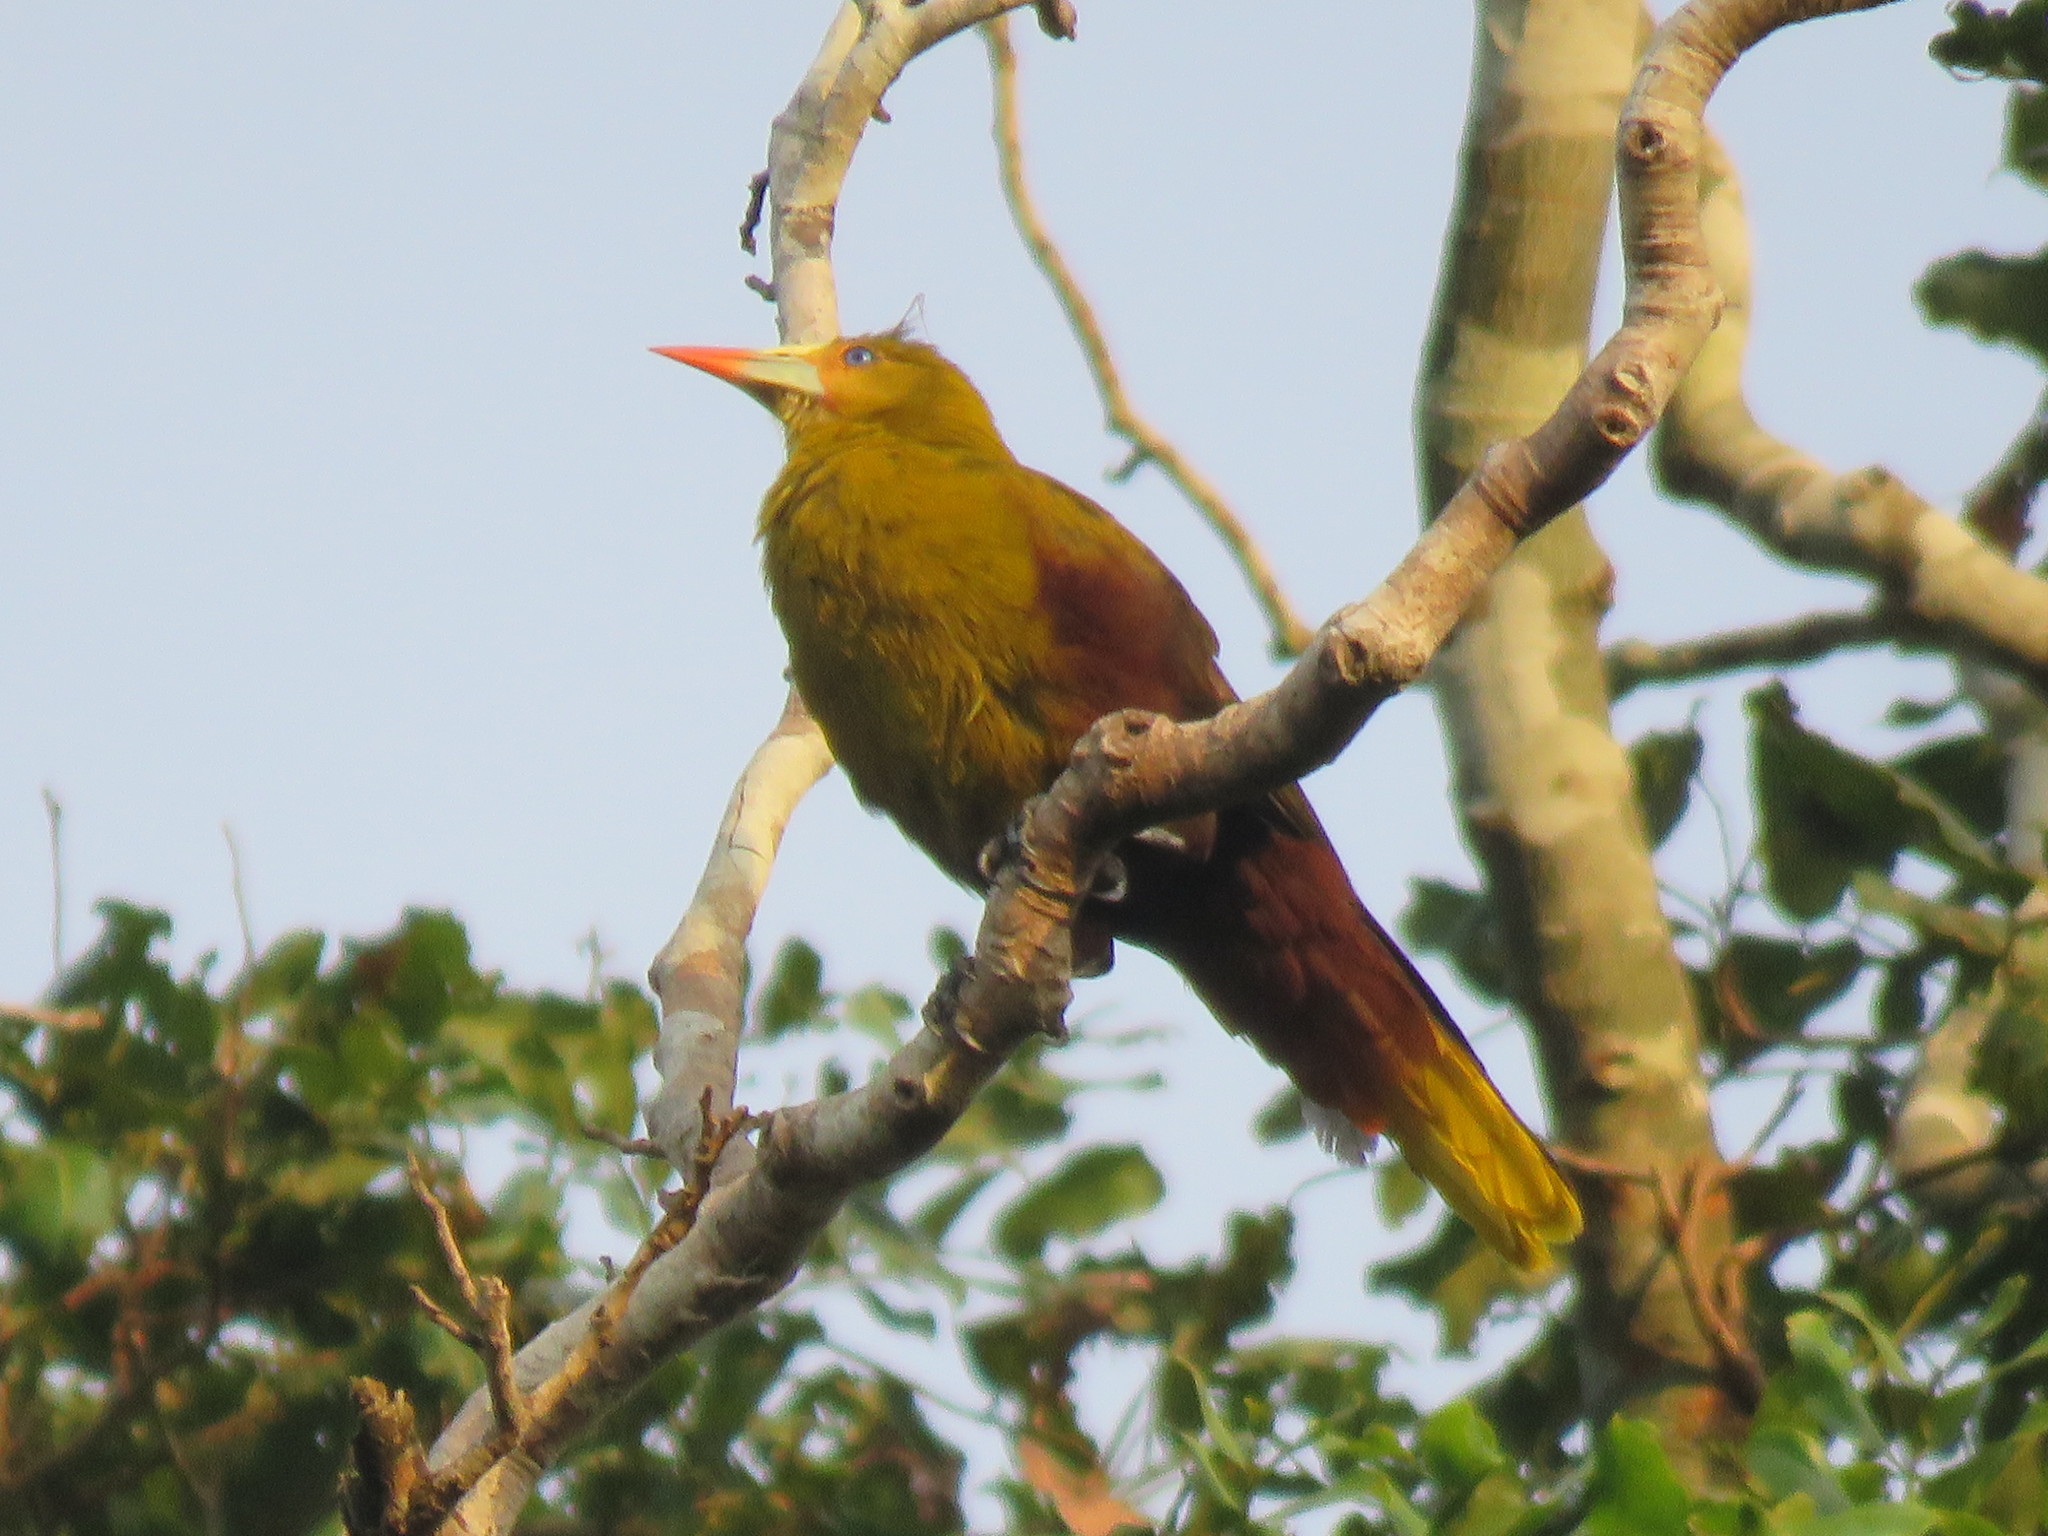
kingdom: Animalia
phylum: Chordata
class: Aves
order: Passeriformes
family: Icteridae
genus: Psarocolius
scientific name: Psarocolius viridis
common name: Green oropendola
